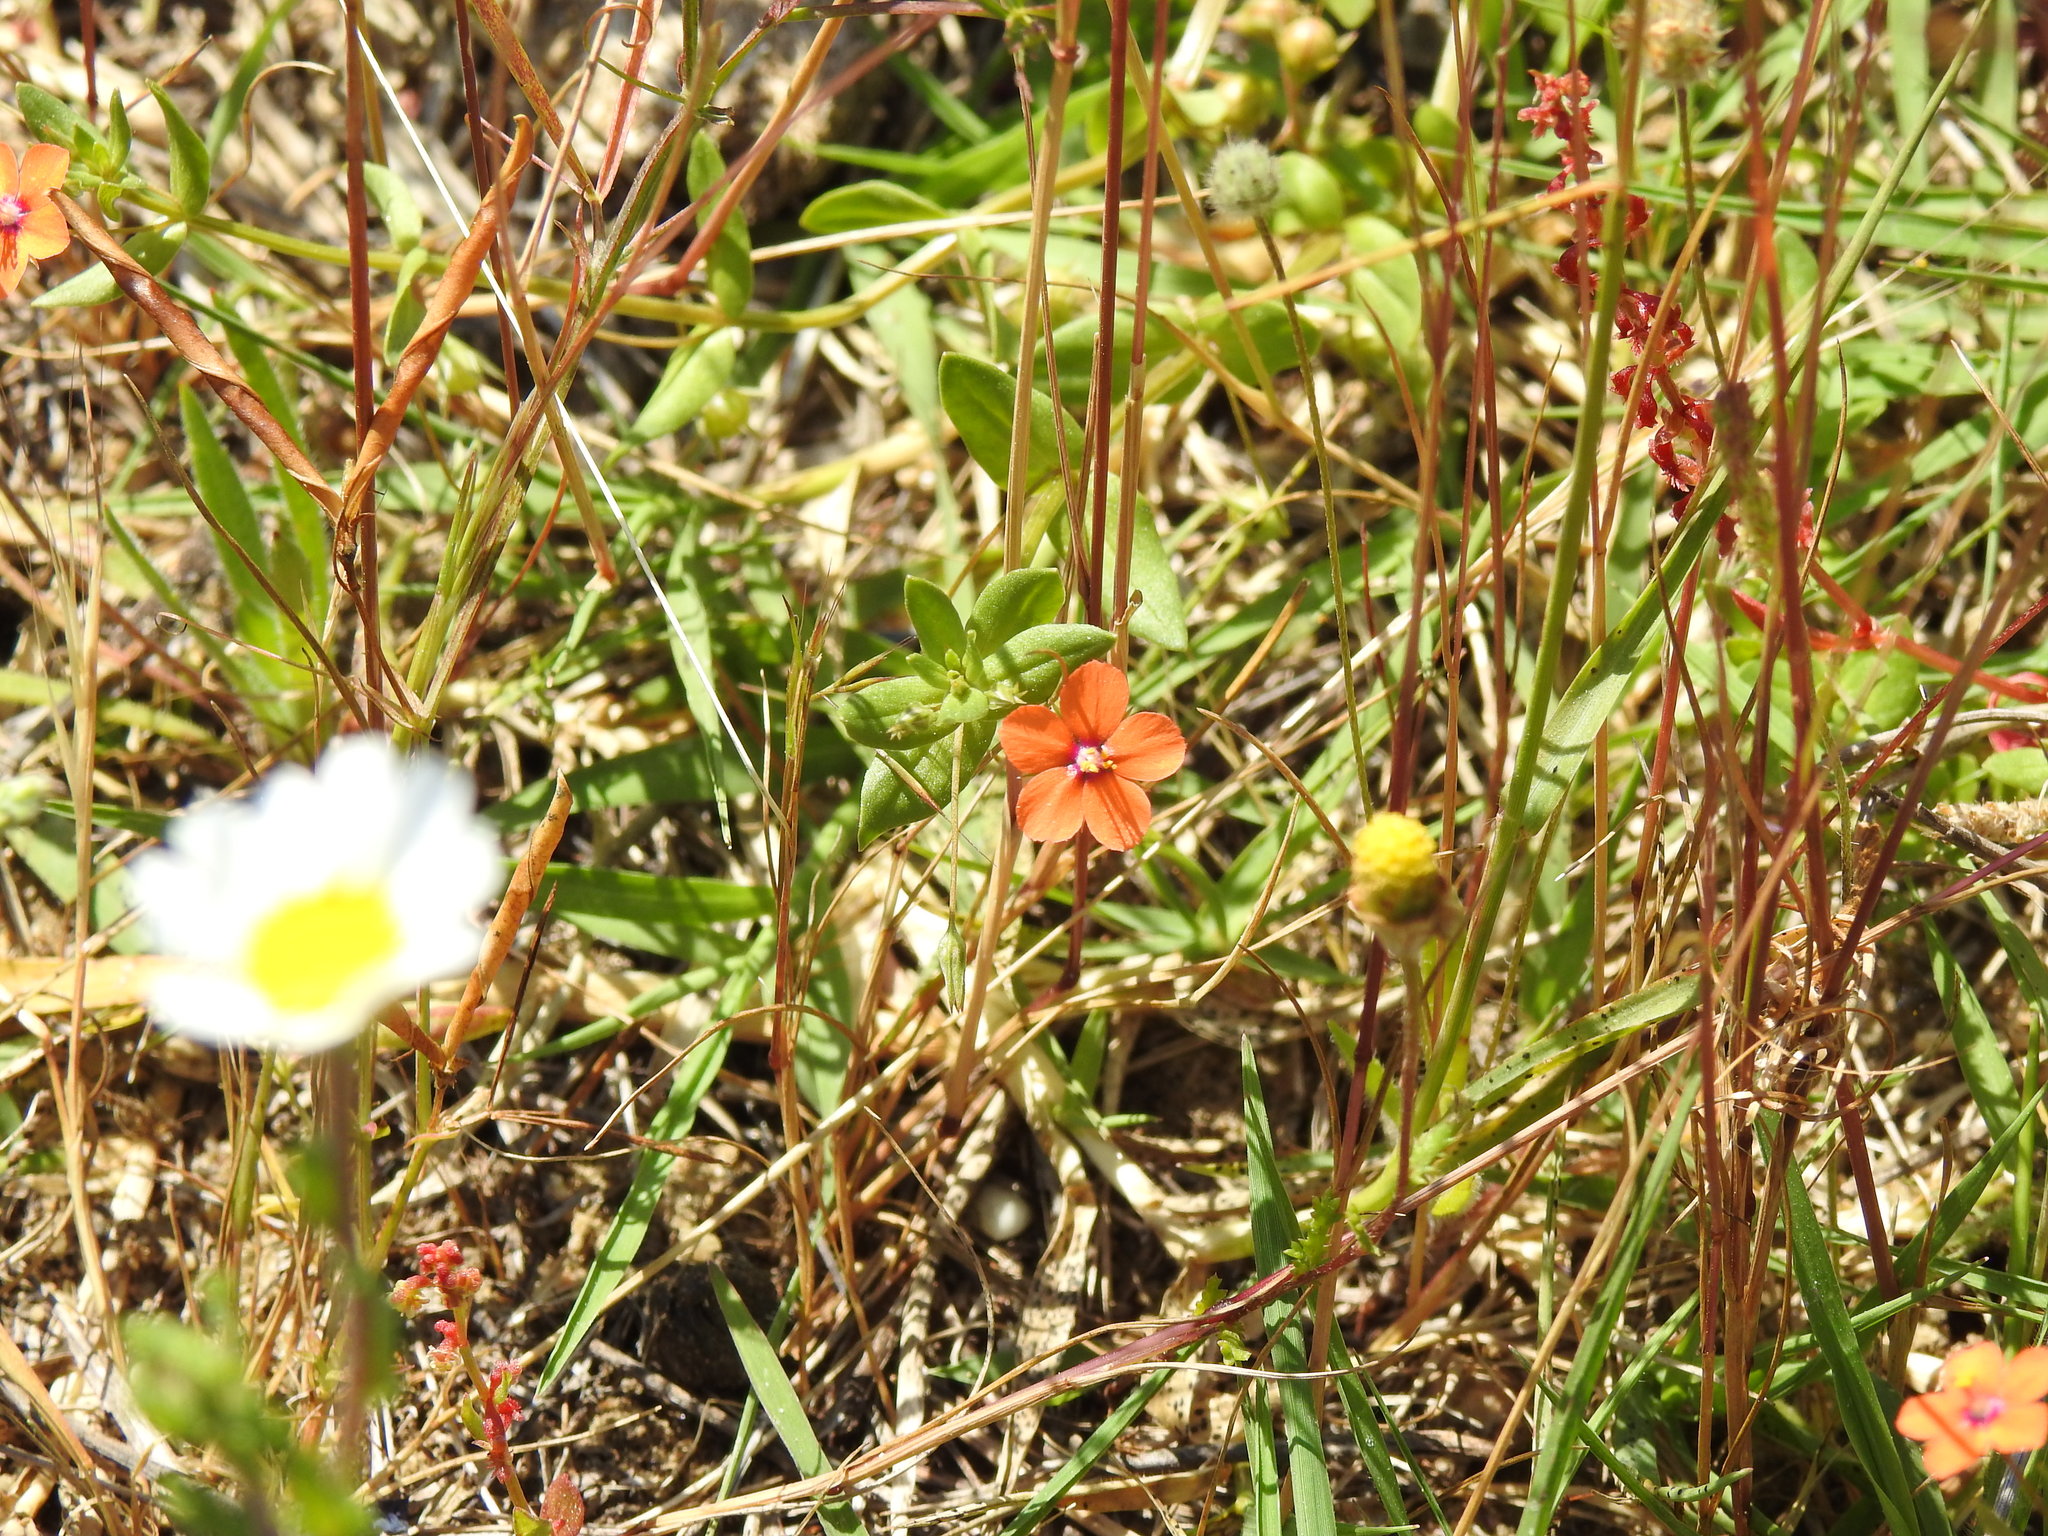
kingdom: Plantae
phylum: Tracheophyta
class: Magnoliopsida
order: Ericales
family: Primulaceae
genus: Lysimachia
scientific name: Lysimachia arvensis
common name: Scarlet pimpernel
